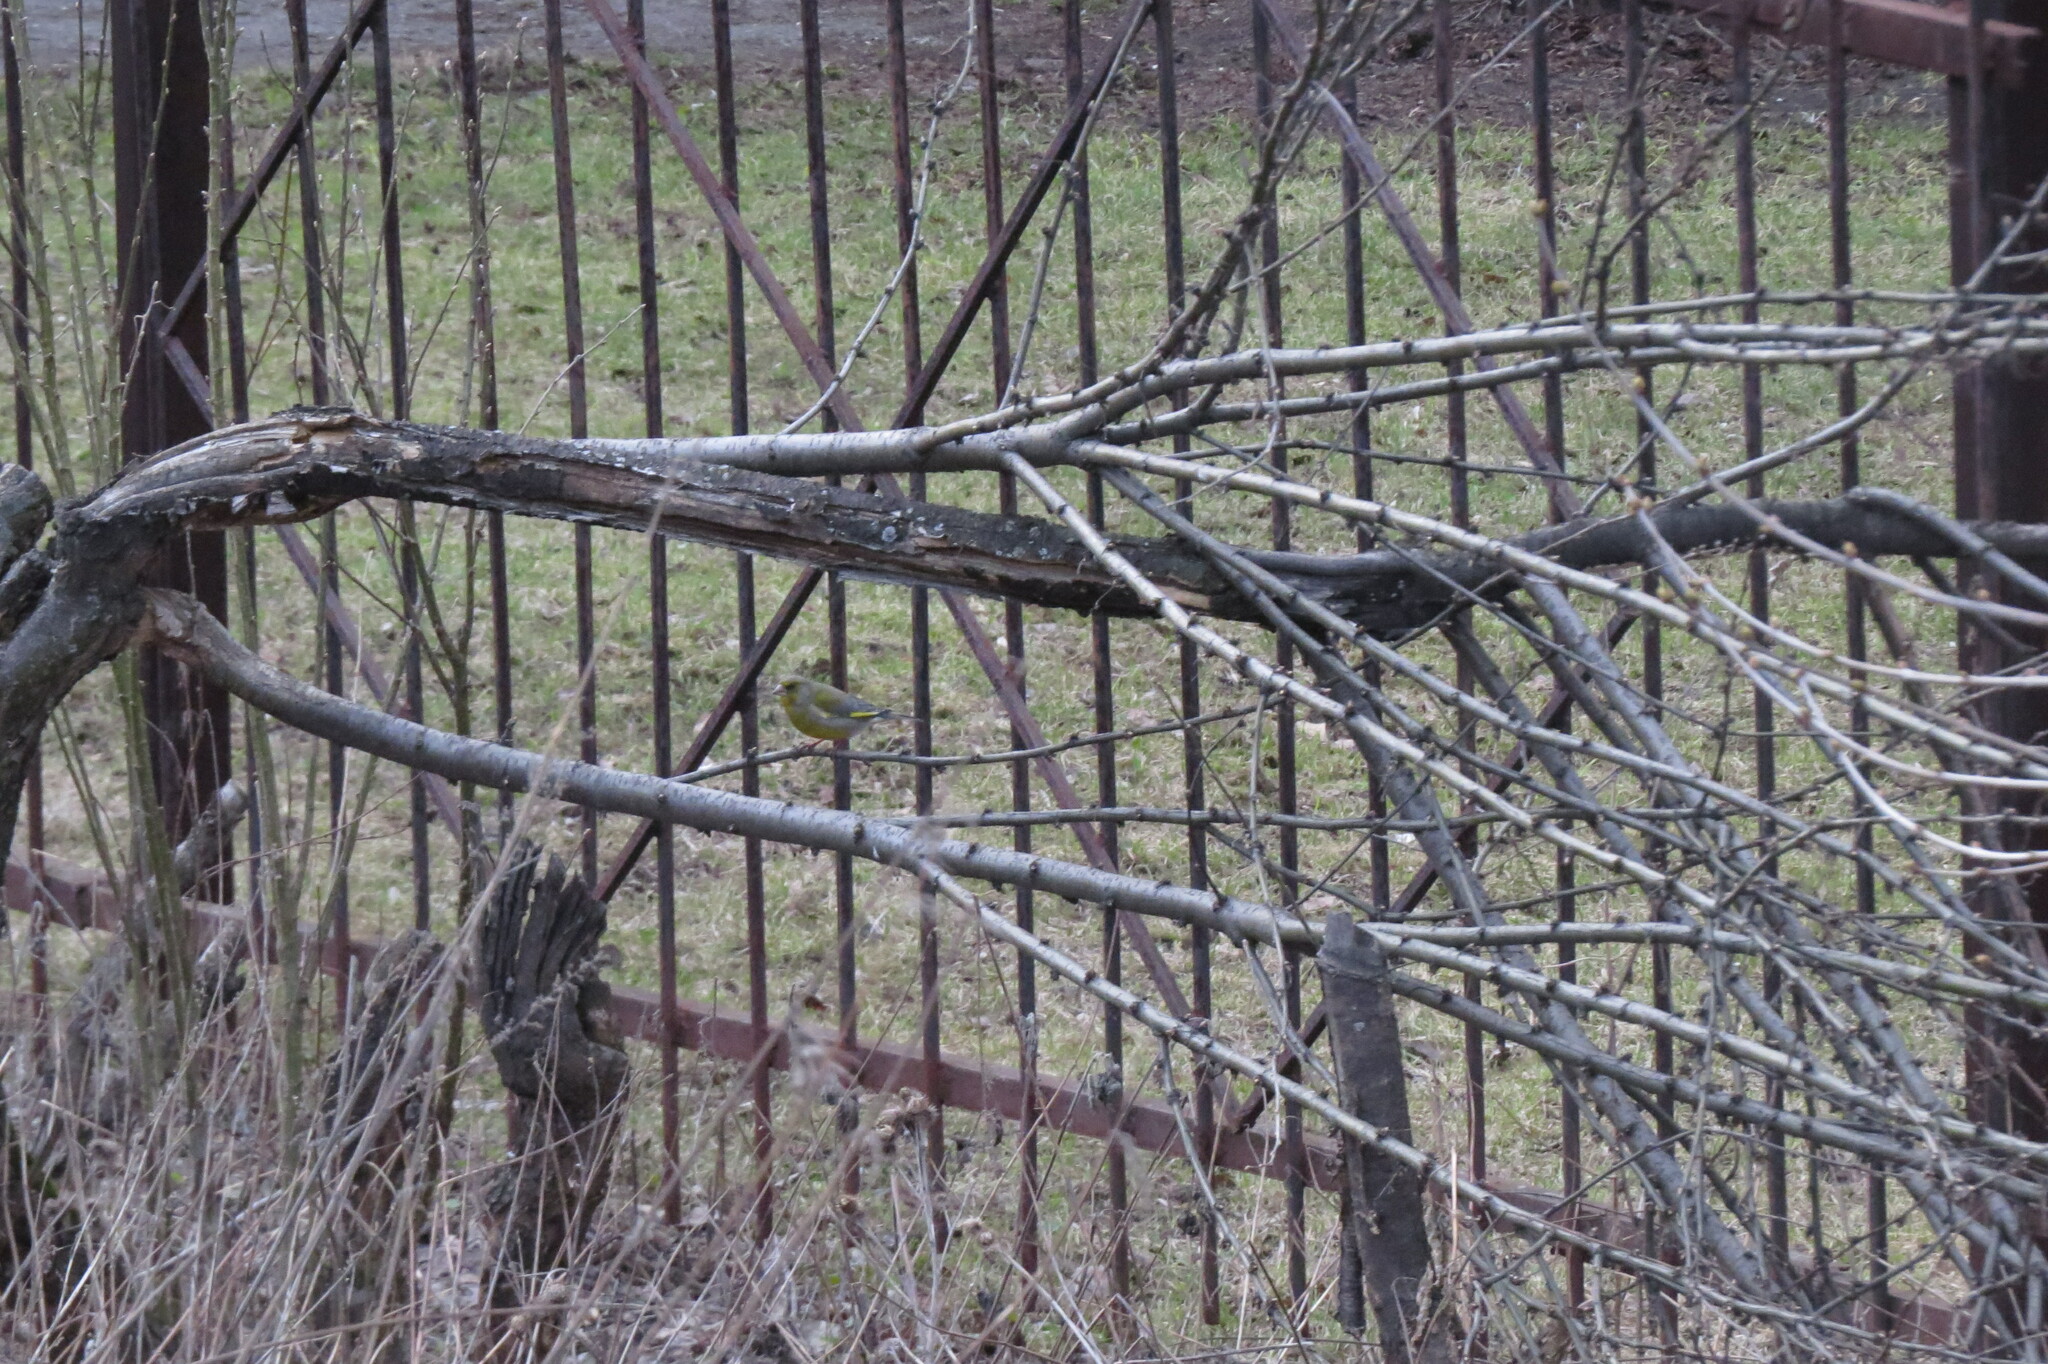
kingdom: Plantae
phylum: Tracheophyta
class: Liliopsida
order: Poales
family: Poaceae
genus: Chloris
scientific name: Chloris chloris
